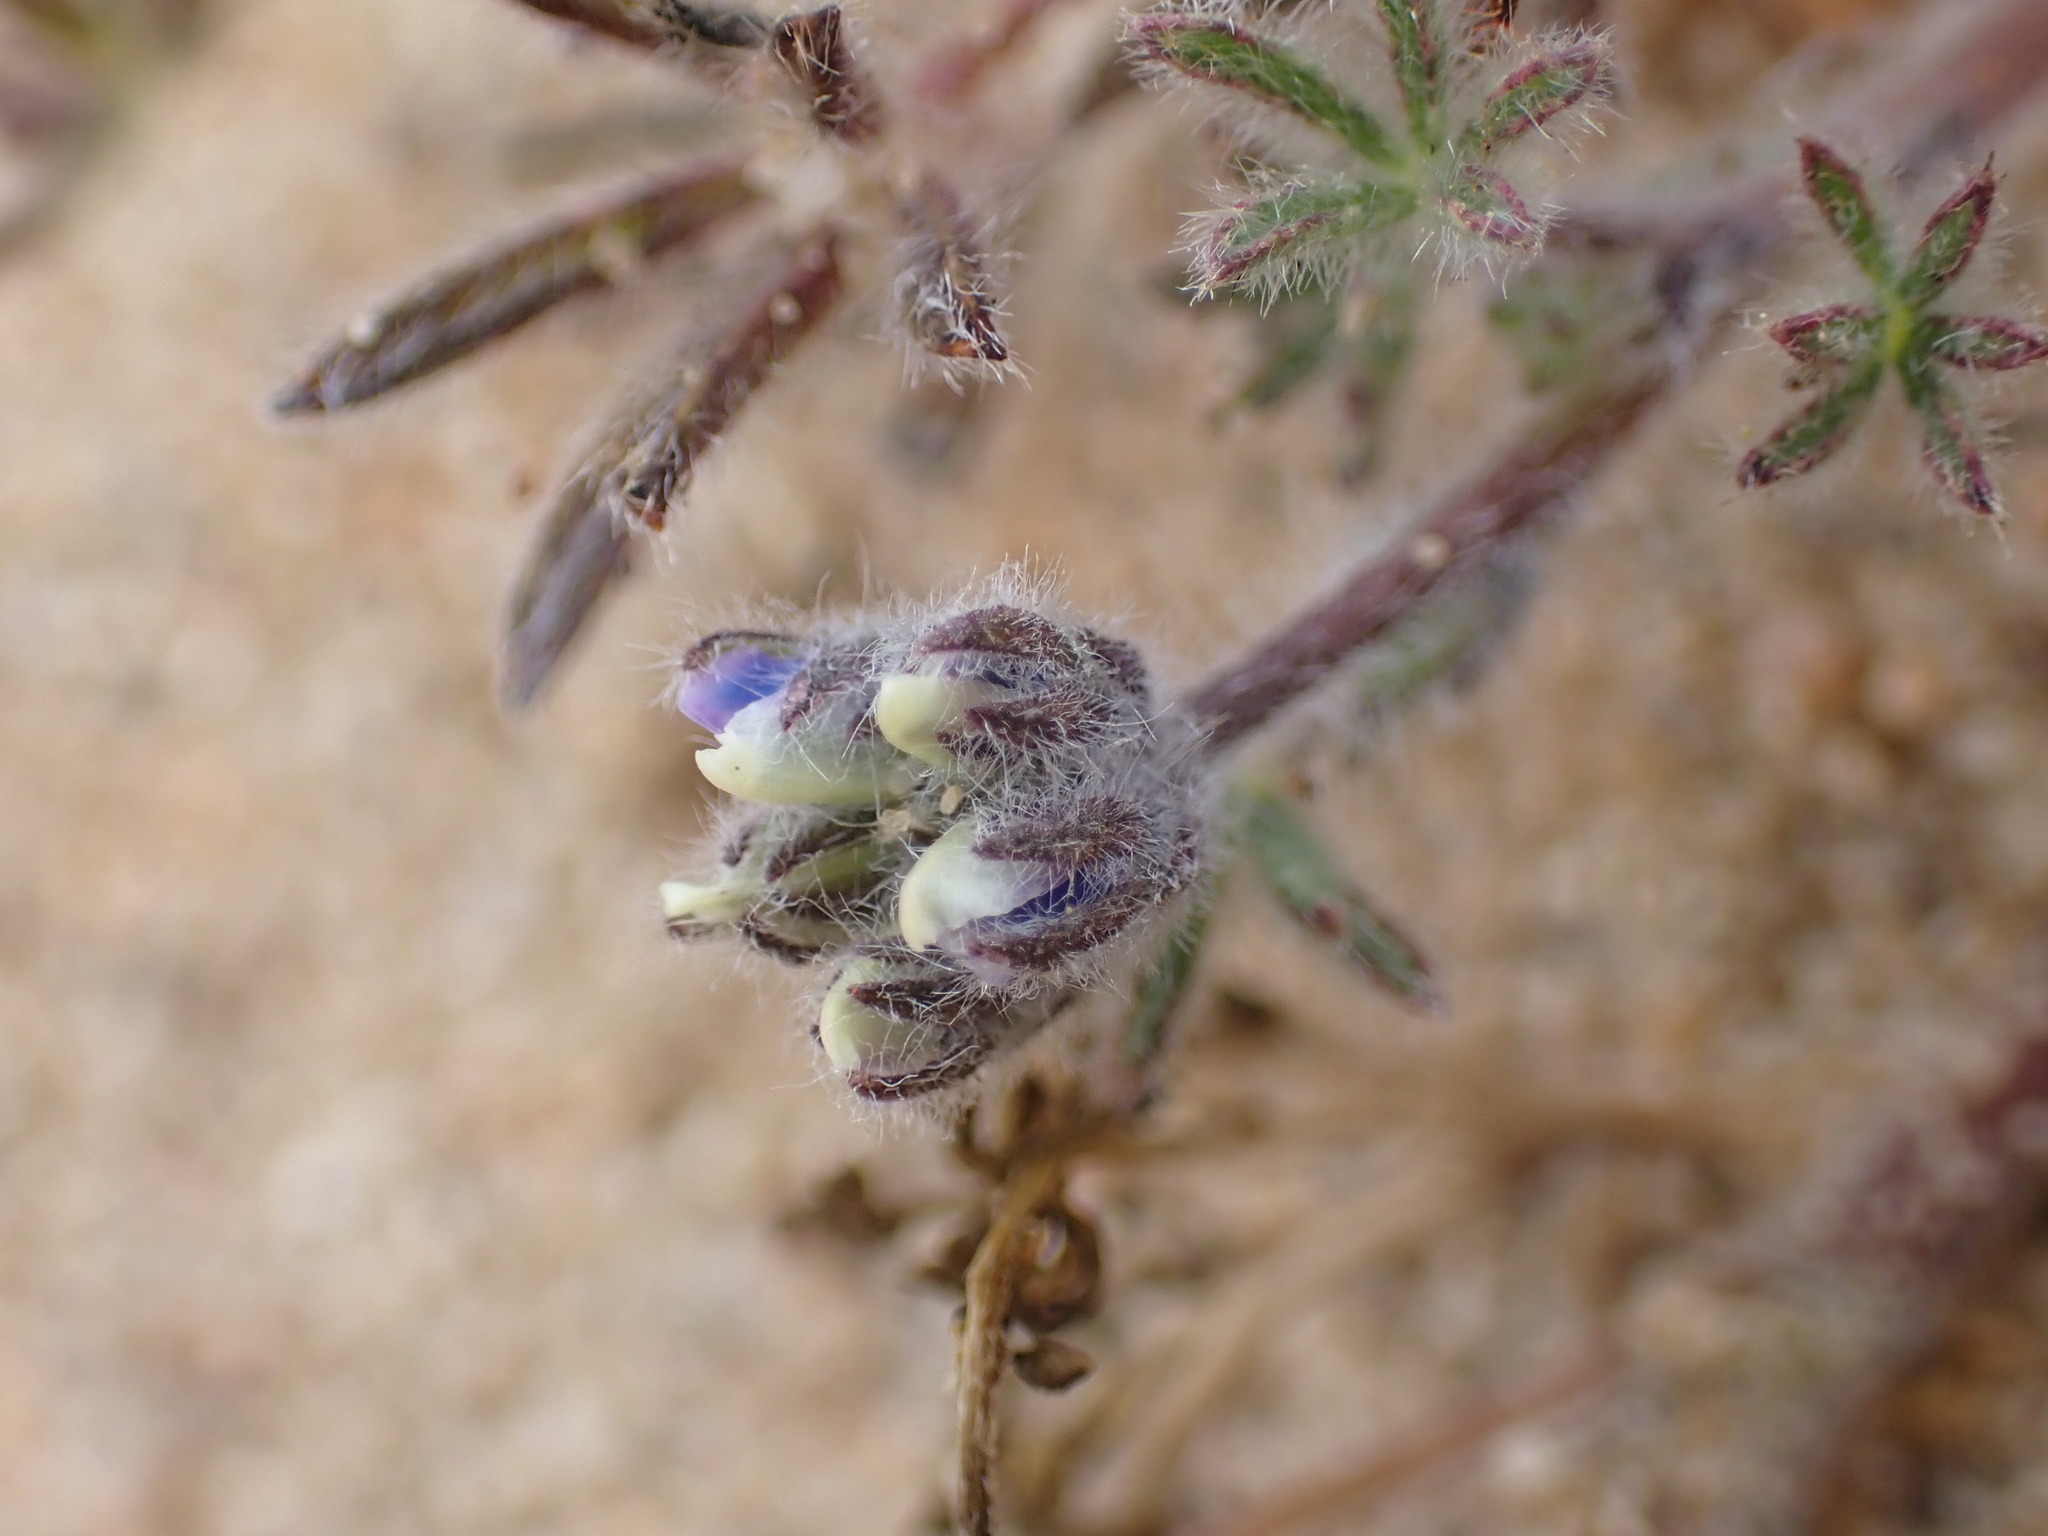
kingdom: Plantae
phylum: Tracheophyta
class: Magnoliopsida
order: Fabales
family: Fabaceae
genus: Lupinus
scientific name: Lupinus bicolor
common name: Miniature lupine
